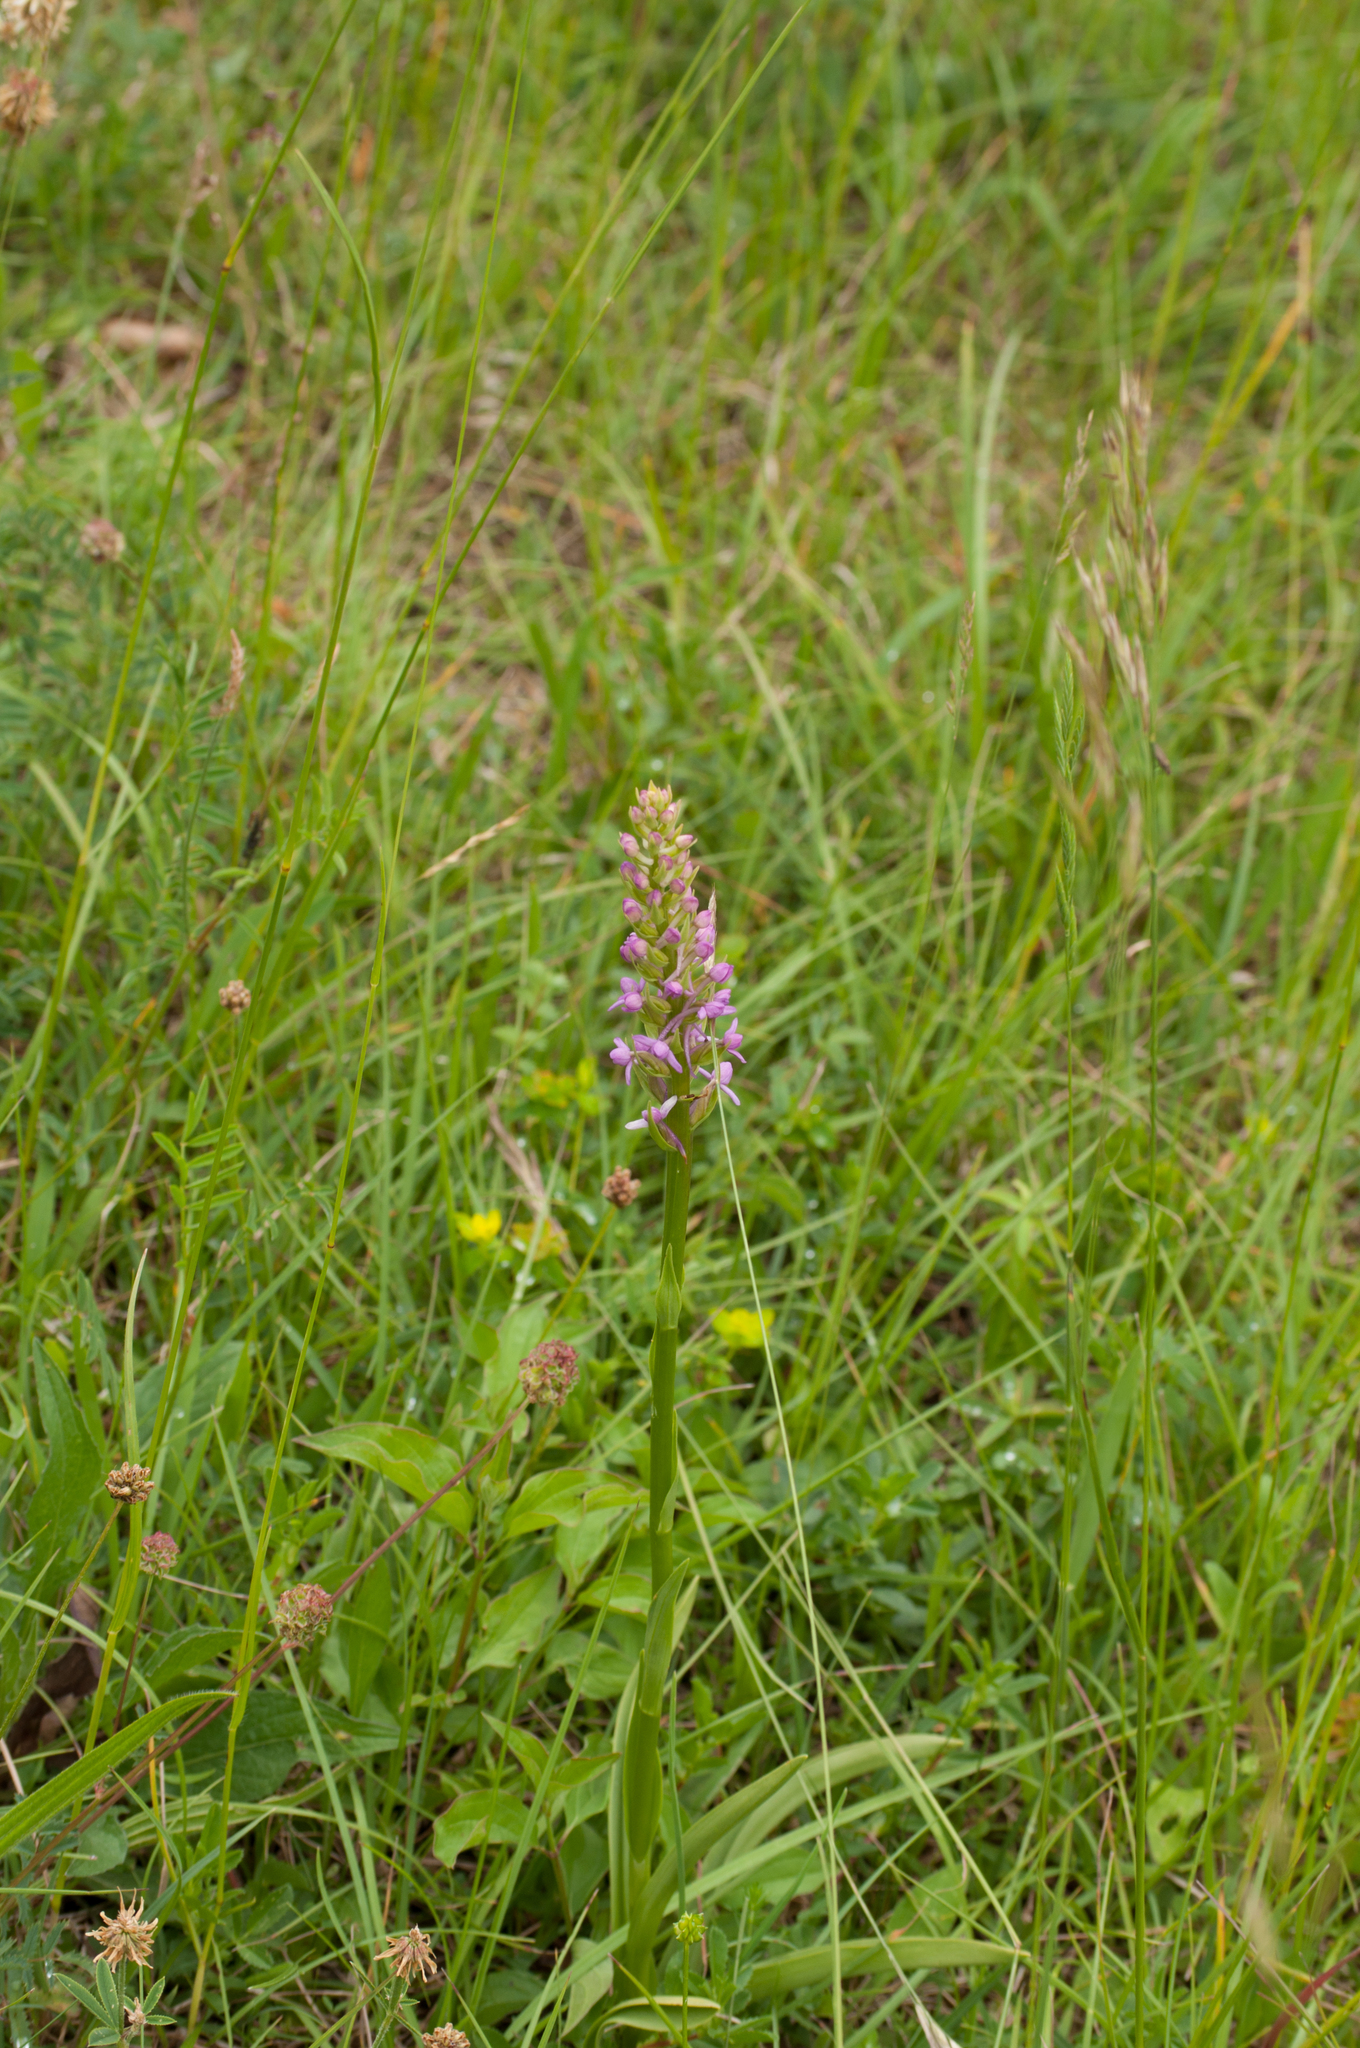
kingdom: Plantae
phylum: Tracheophyta
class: Liliopsida
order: Asparagales
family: Orchidaceae
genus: Gymnadenia
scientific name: Gymnadenia conopsea
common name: Fragrant orchid
